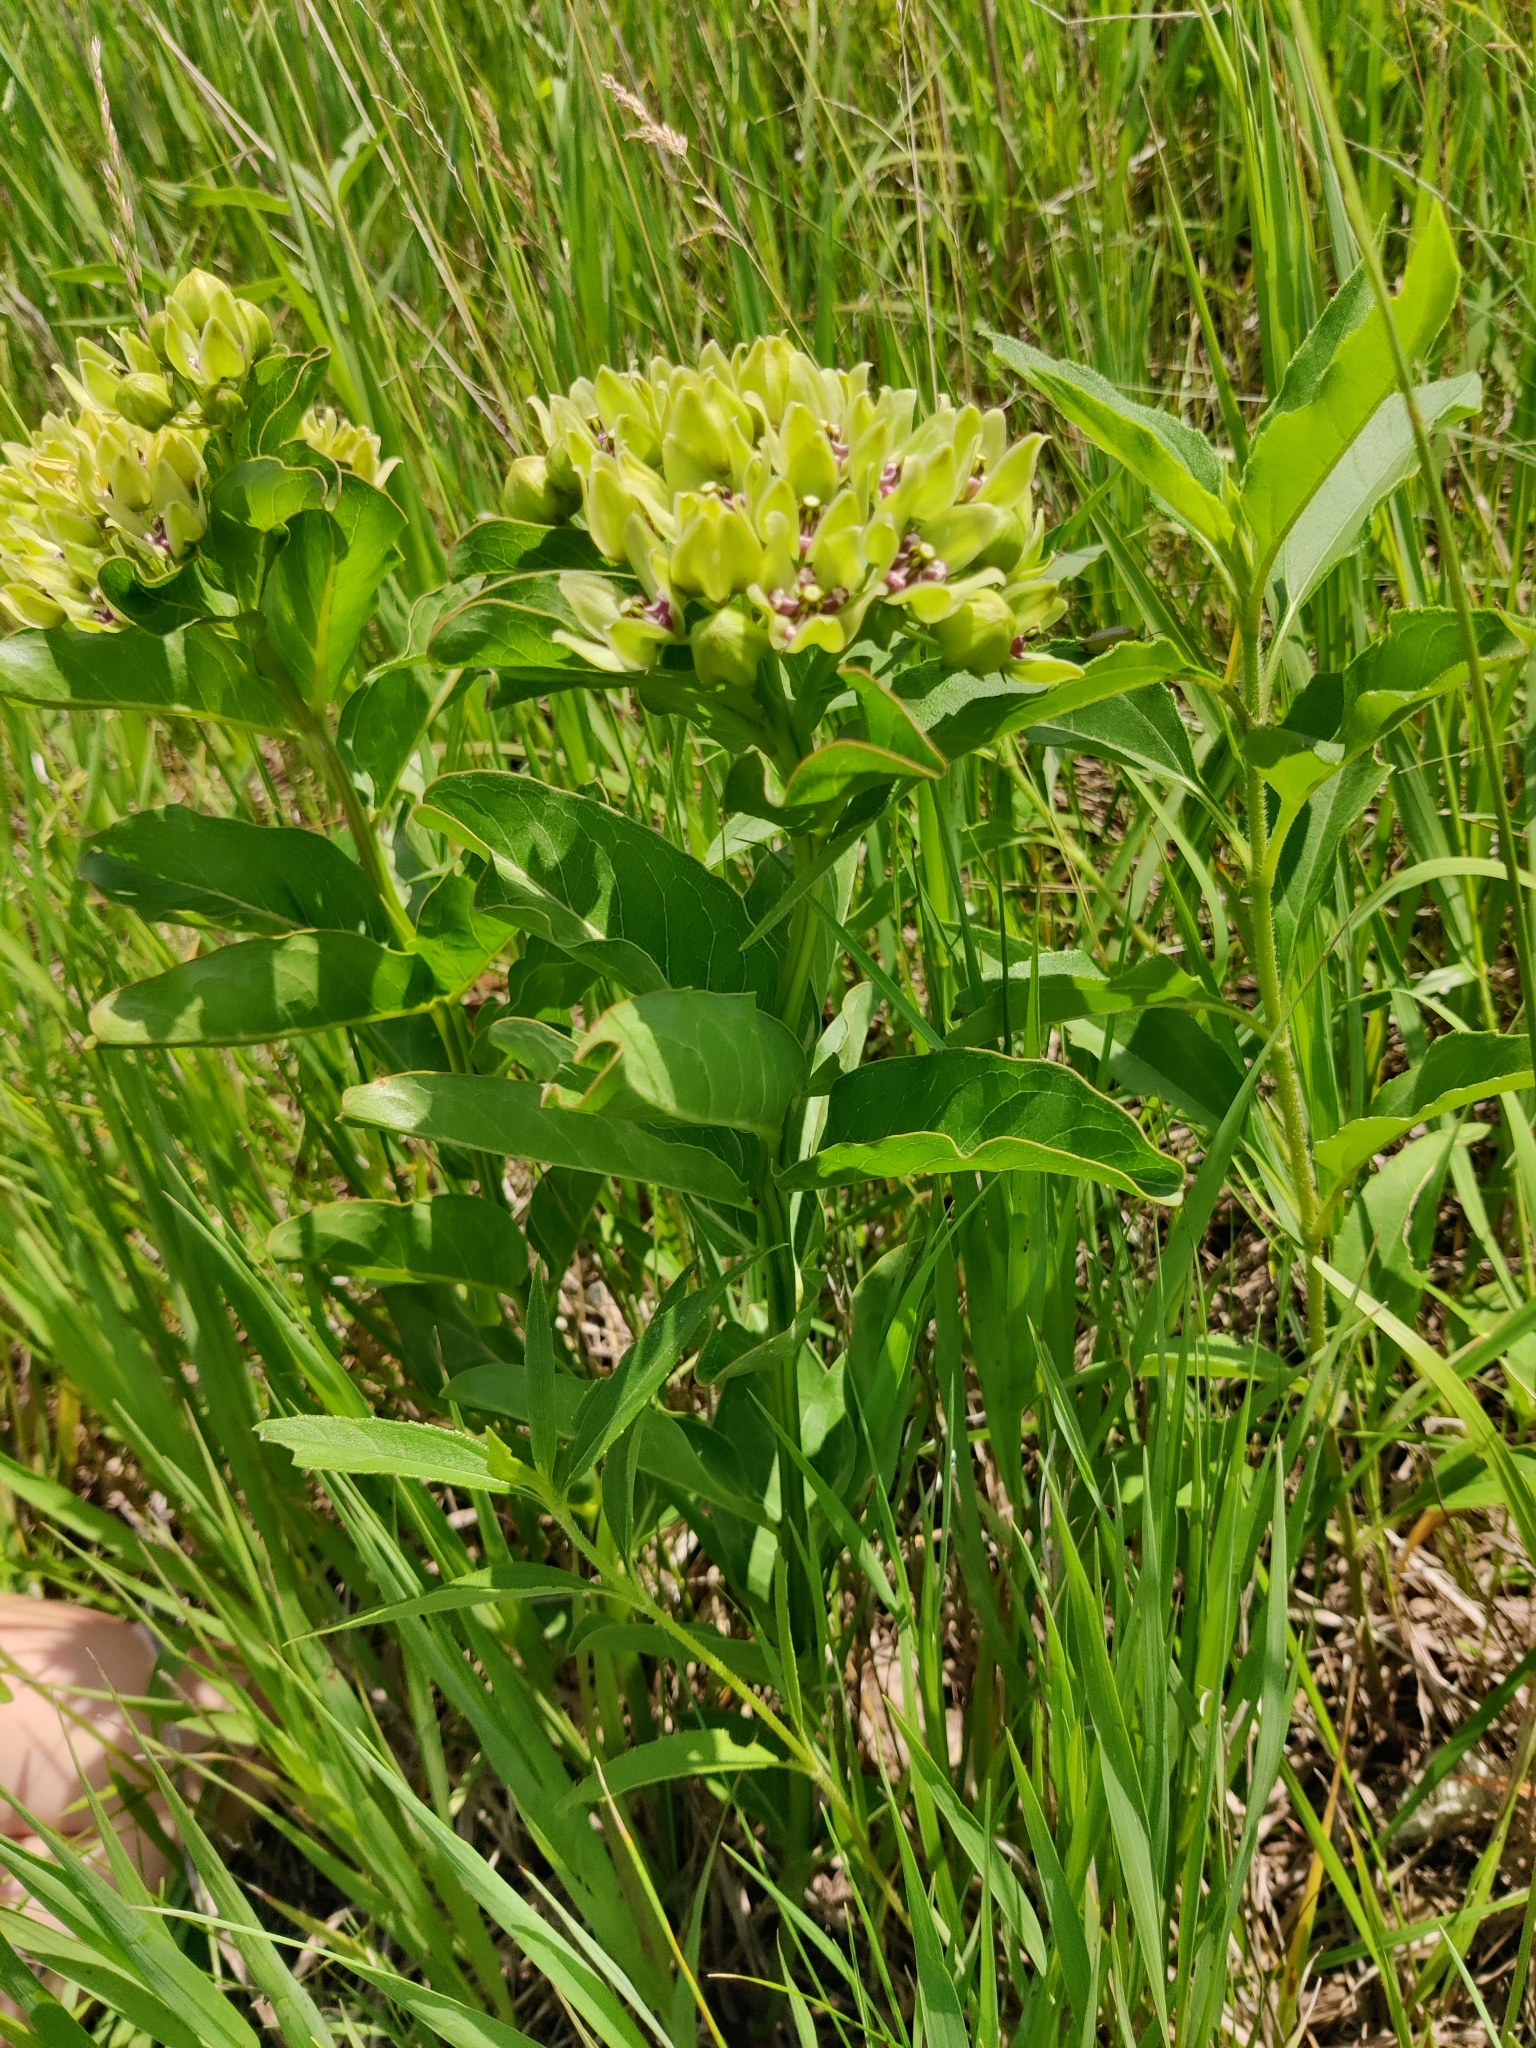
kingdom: Plantae
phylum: Tracheophyta
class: Magnoliopsida
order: Gentianales
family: Apocynaceae
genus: Asclepias
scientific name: Asclepias viridis
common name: Antelope-horns
